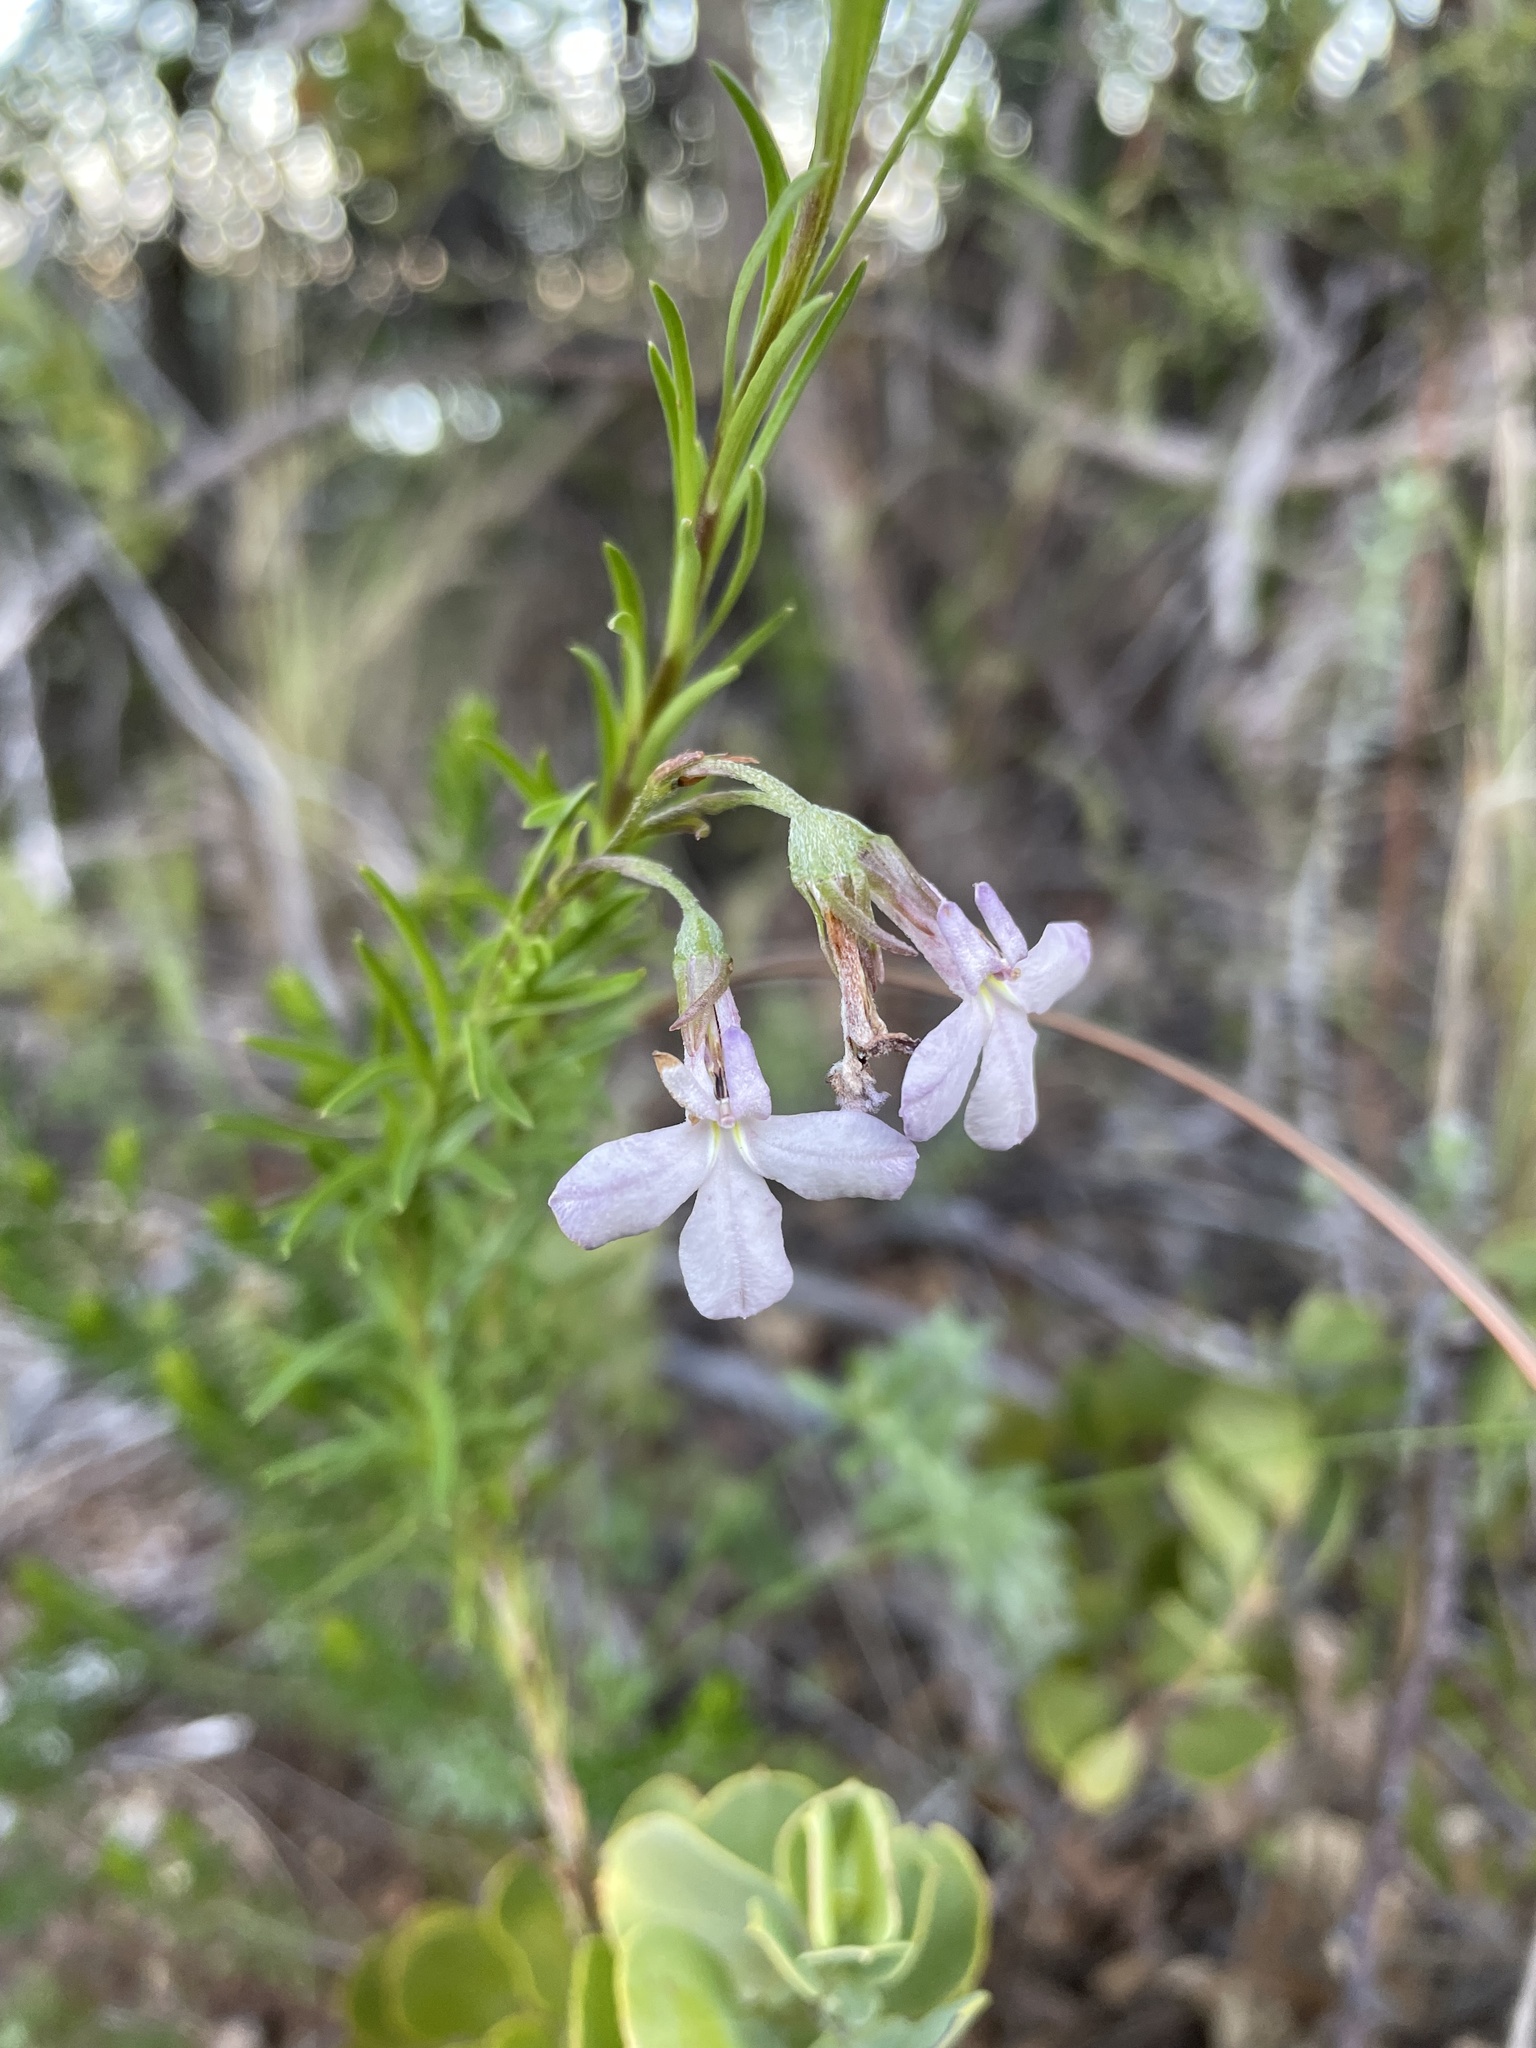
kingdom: Plantae
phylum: Tracheophyta
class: Magnoliopsida
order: Asterales
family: Campanulaceae
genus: Lobelia
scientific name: Lobelia pinifolia
